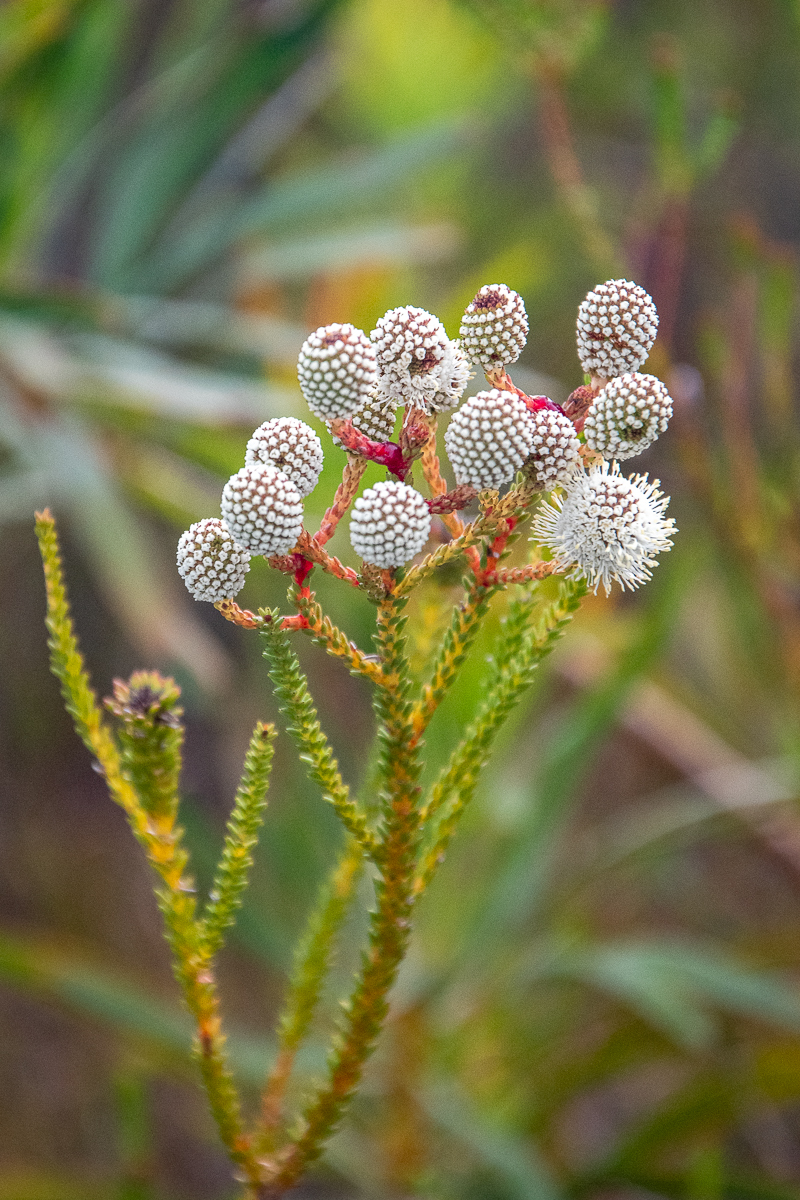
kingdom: Plantae
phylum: Tracheophyta
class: Magnoliopsida
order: Bruniales
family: Bruniaceae
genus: Berzelia
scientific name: Berzelia abrotanoides
